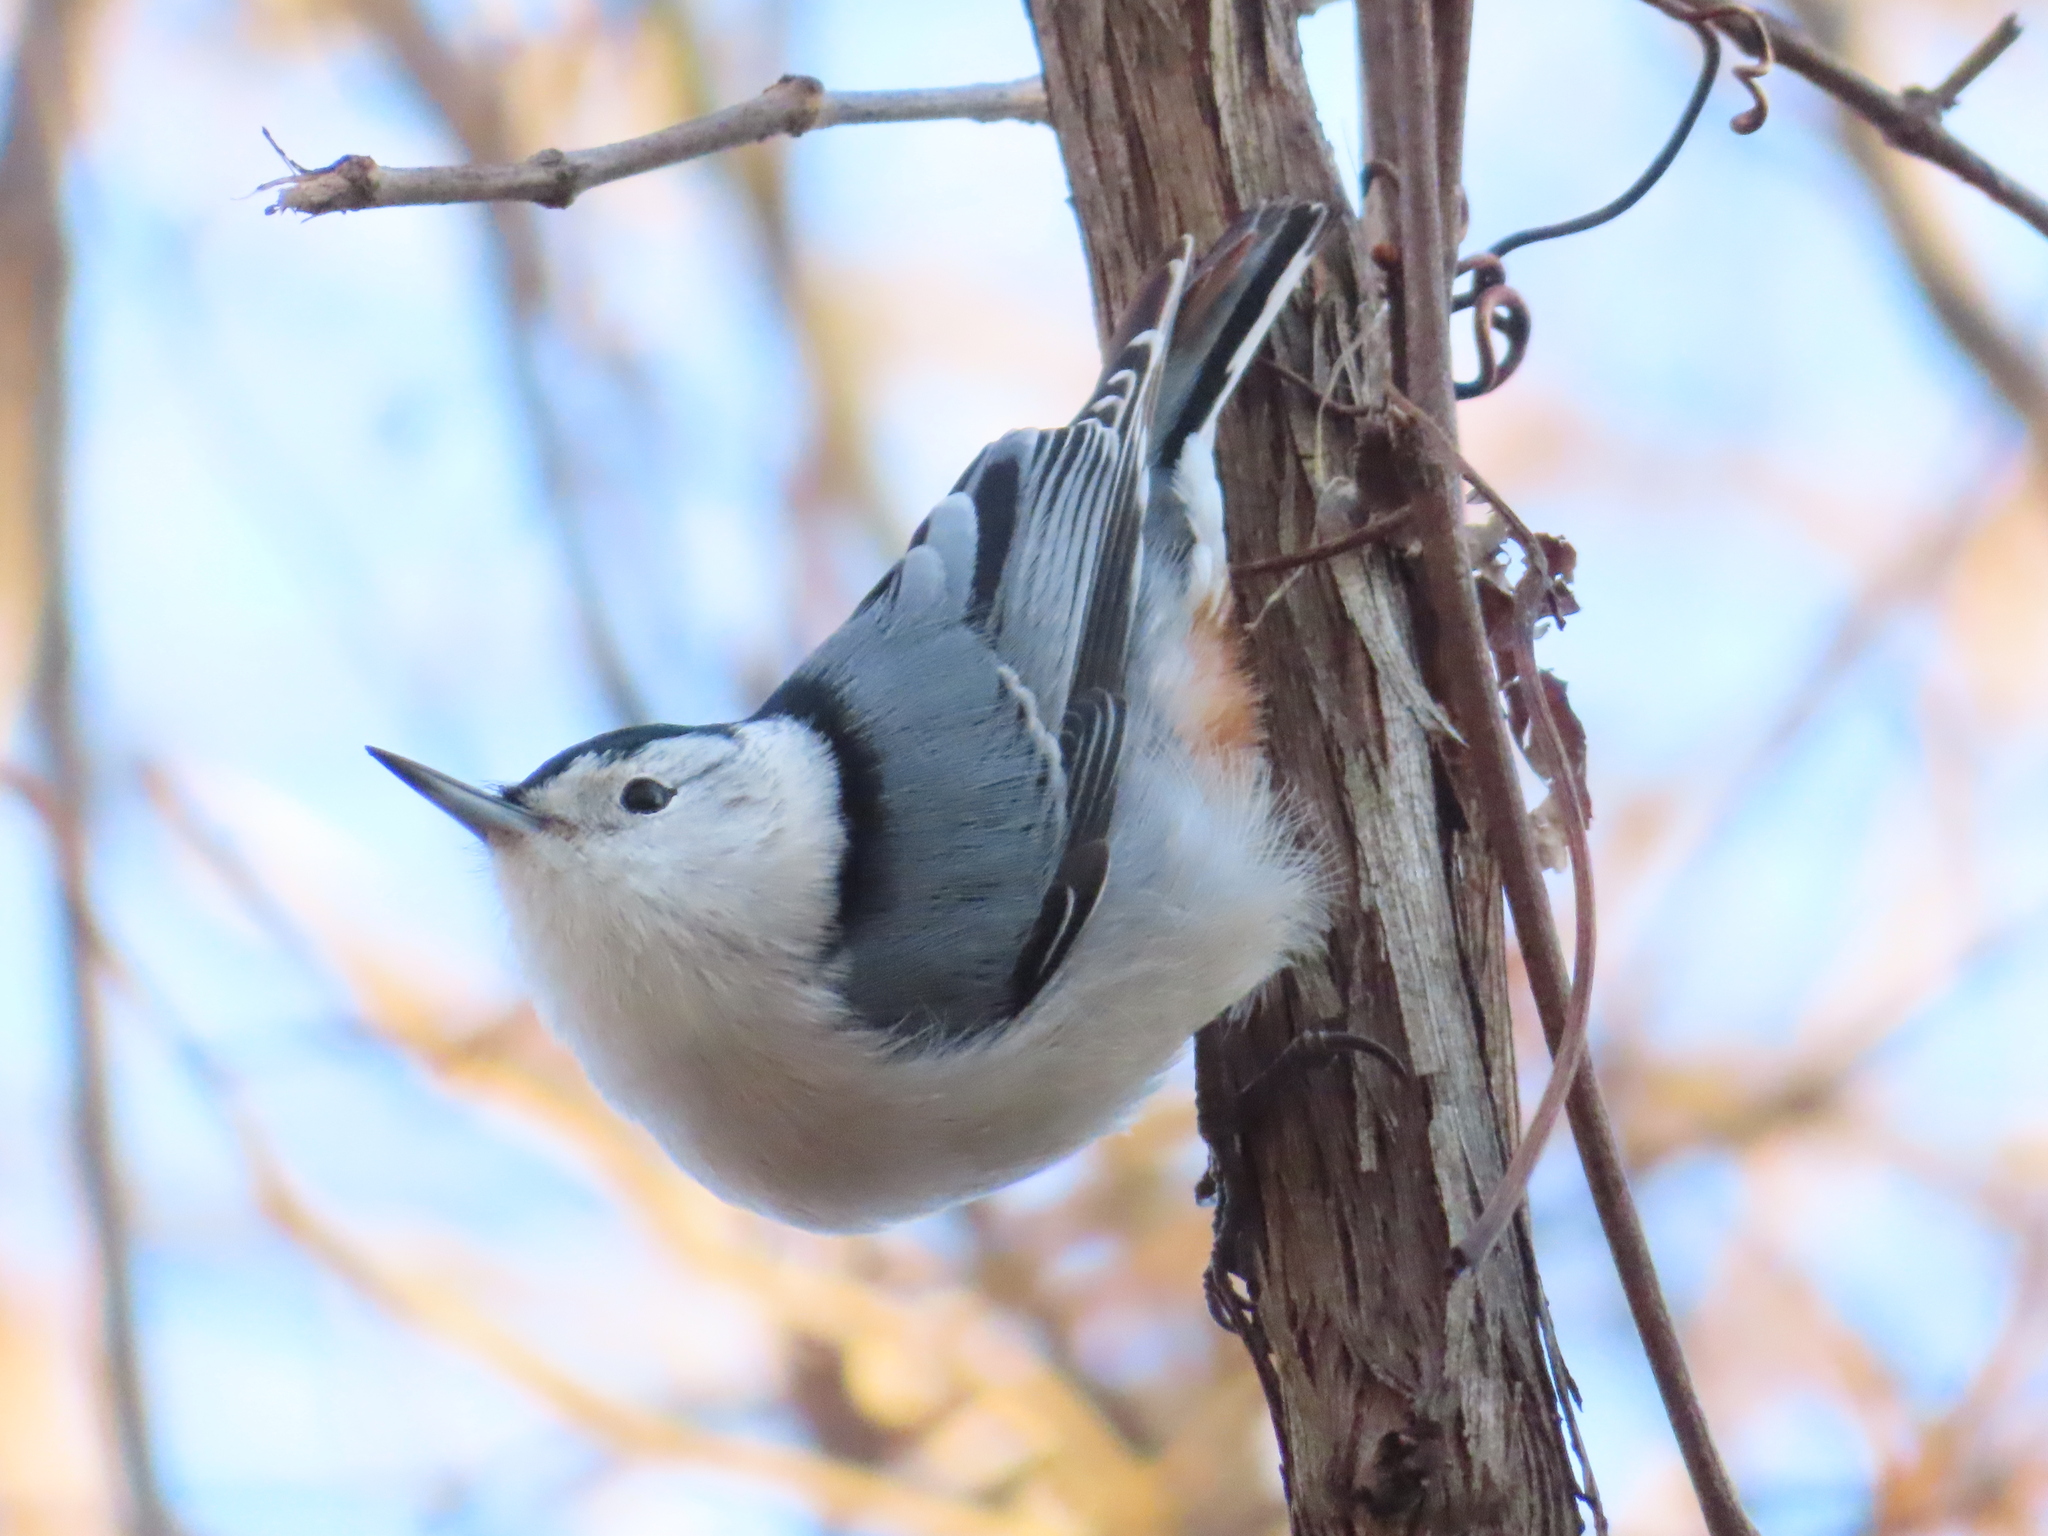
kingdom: Animalia
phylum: Chordata
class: Aves
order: Passeriformes
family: Sittidae
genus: Sitta
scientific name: Sitta carolinensis
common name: White-breasted nuthatch
